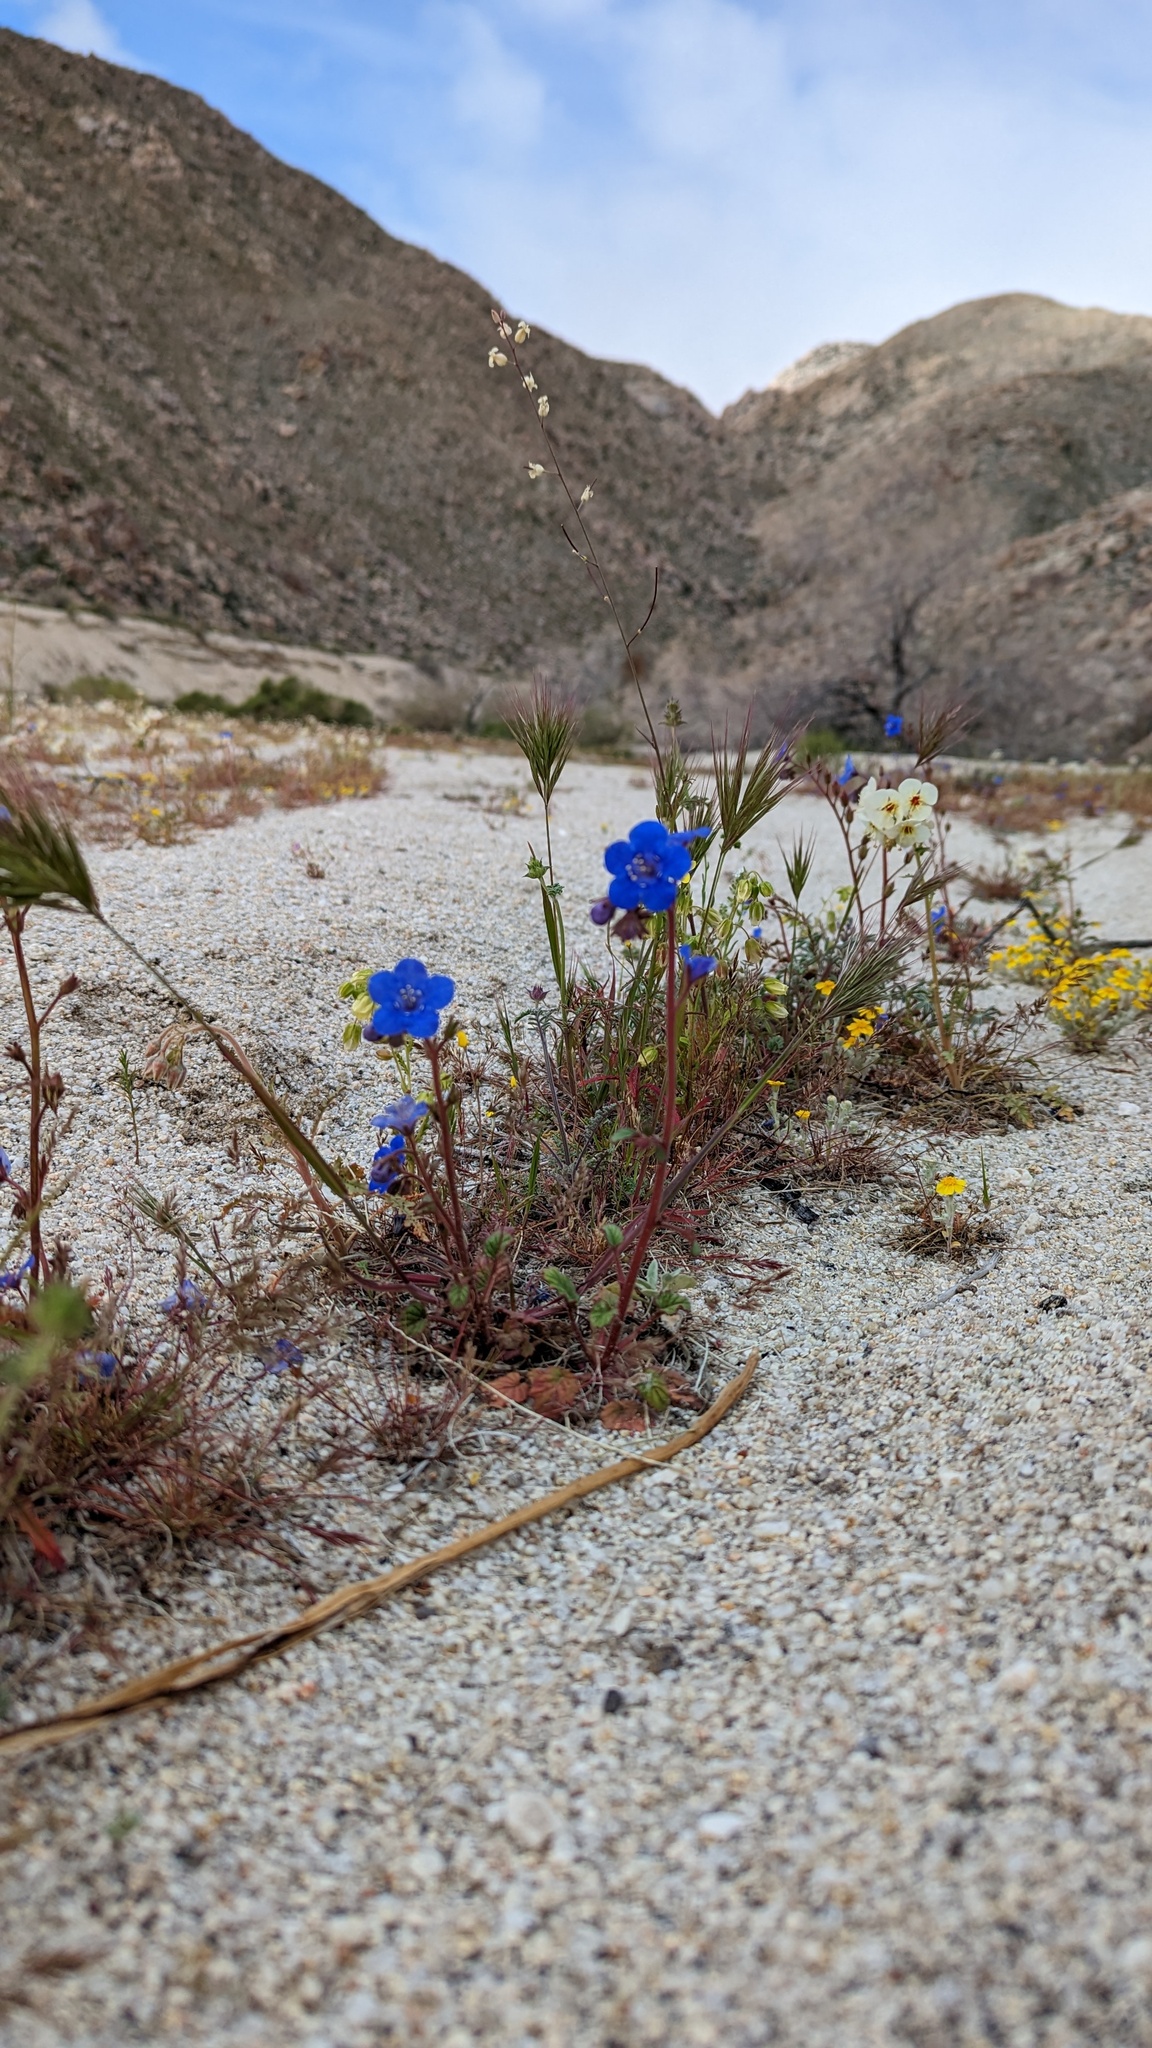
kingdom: Plantae
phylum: Tracheophyta
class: Magnoliopsida
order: Boraginales
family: Hydrophyllaceae
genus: Phacelia
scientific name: Phacelia campanularia
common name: California bluebell
